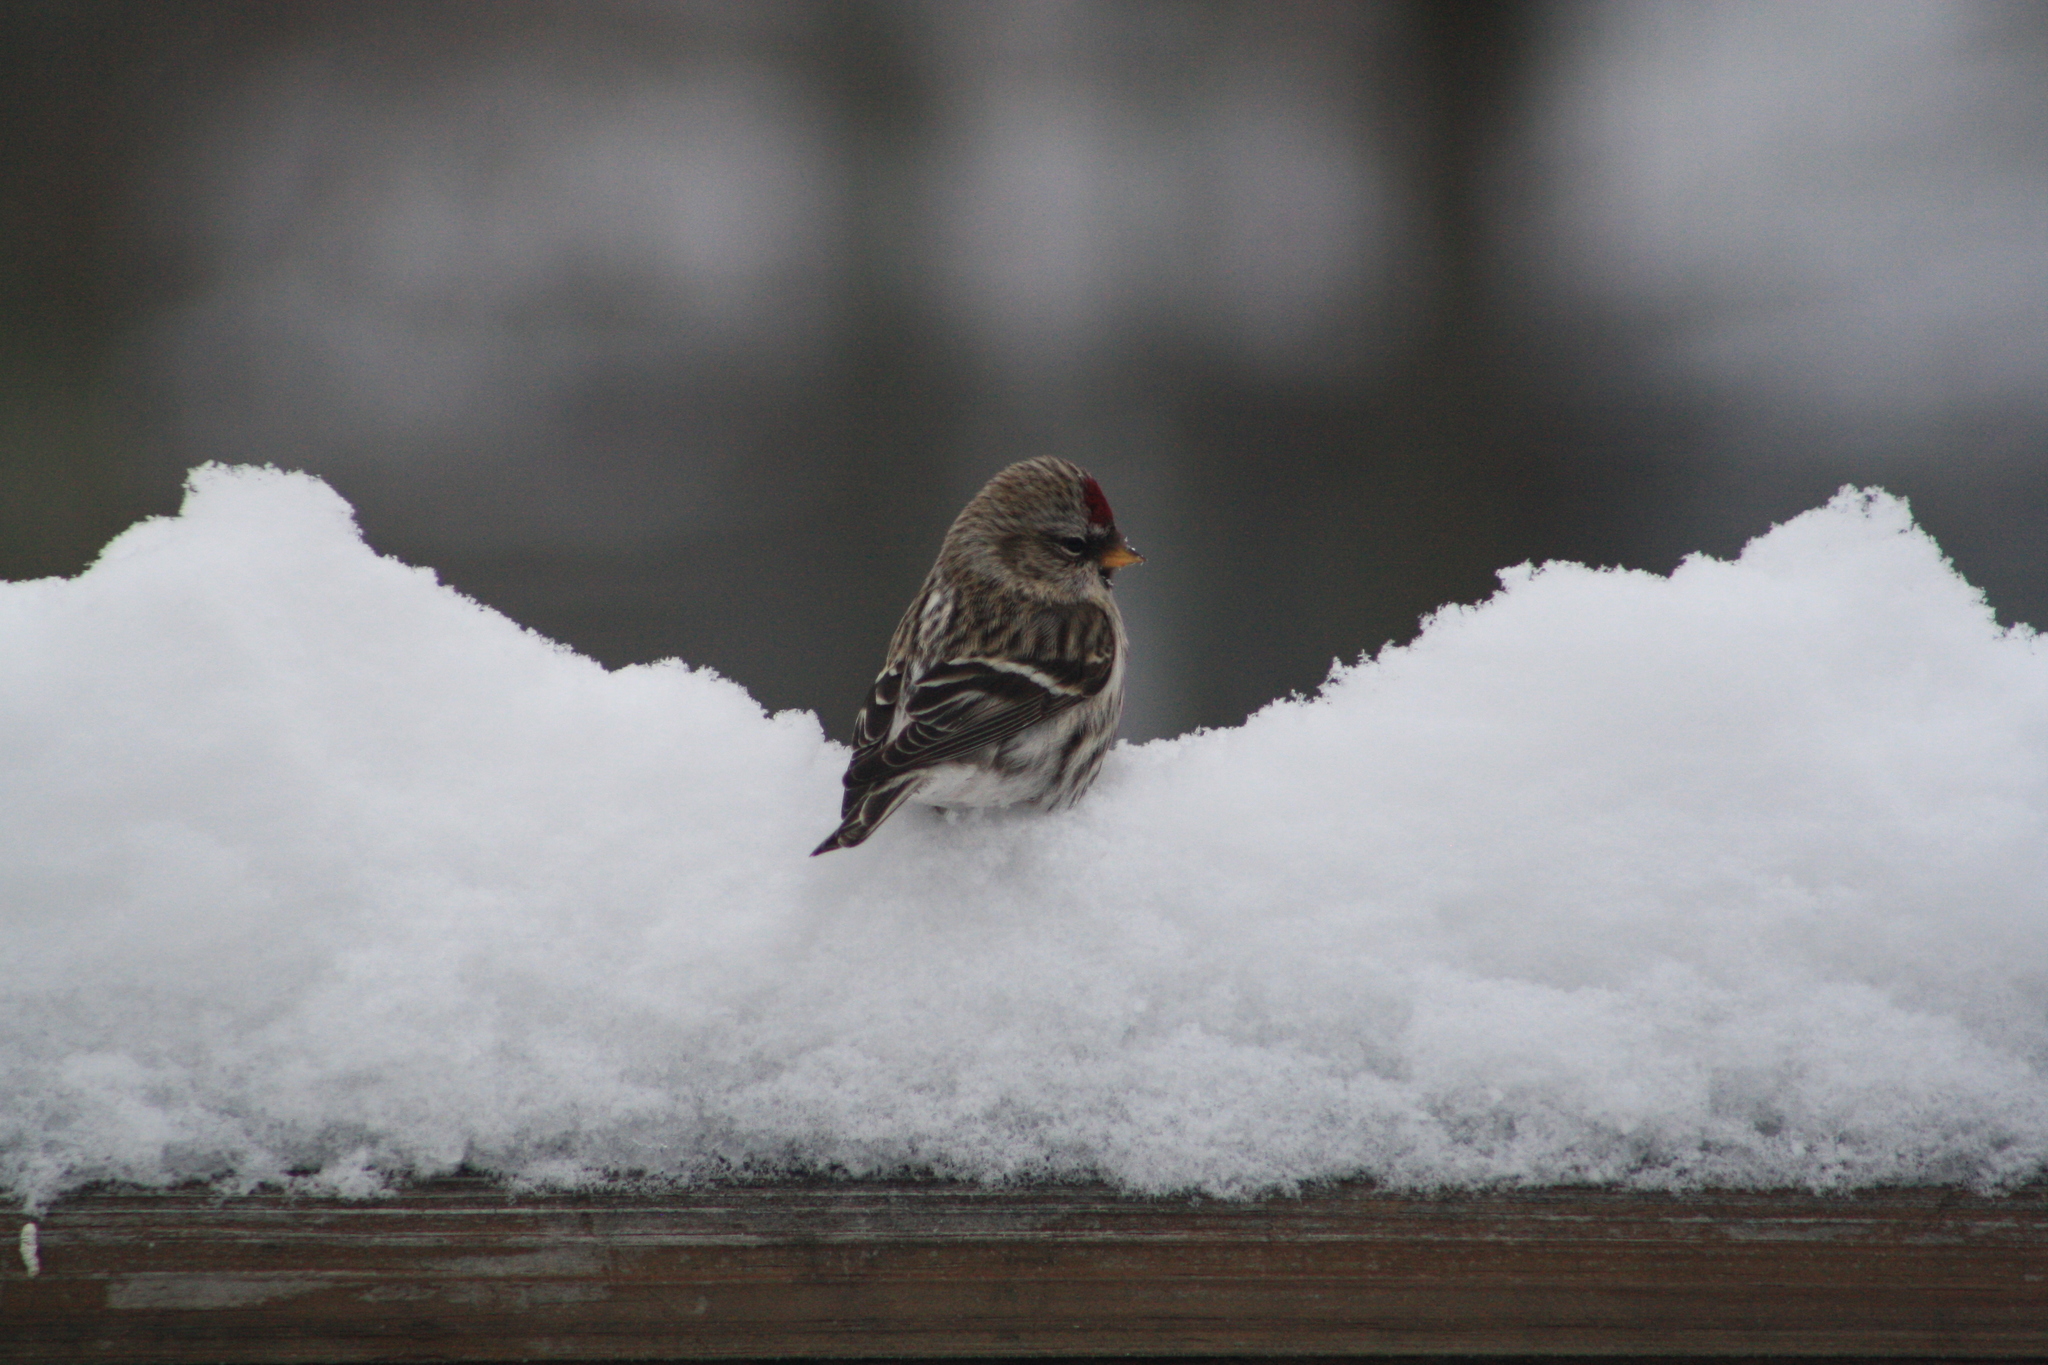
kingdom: Animalia
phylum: Chordata
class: Aves
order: Passeriformes
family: Fringillidae
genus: Acanthis
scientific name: Acanthis flammea
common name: Common redpoll
